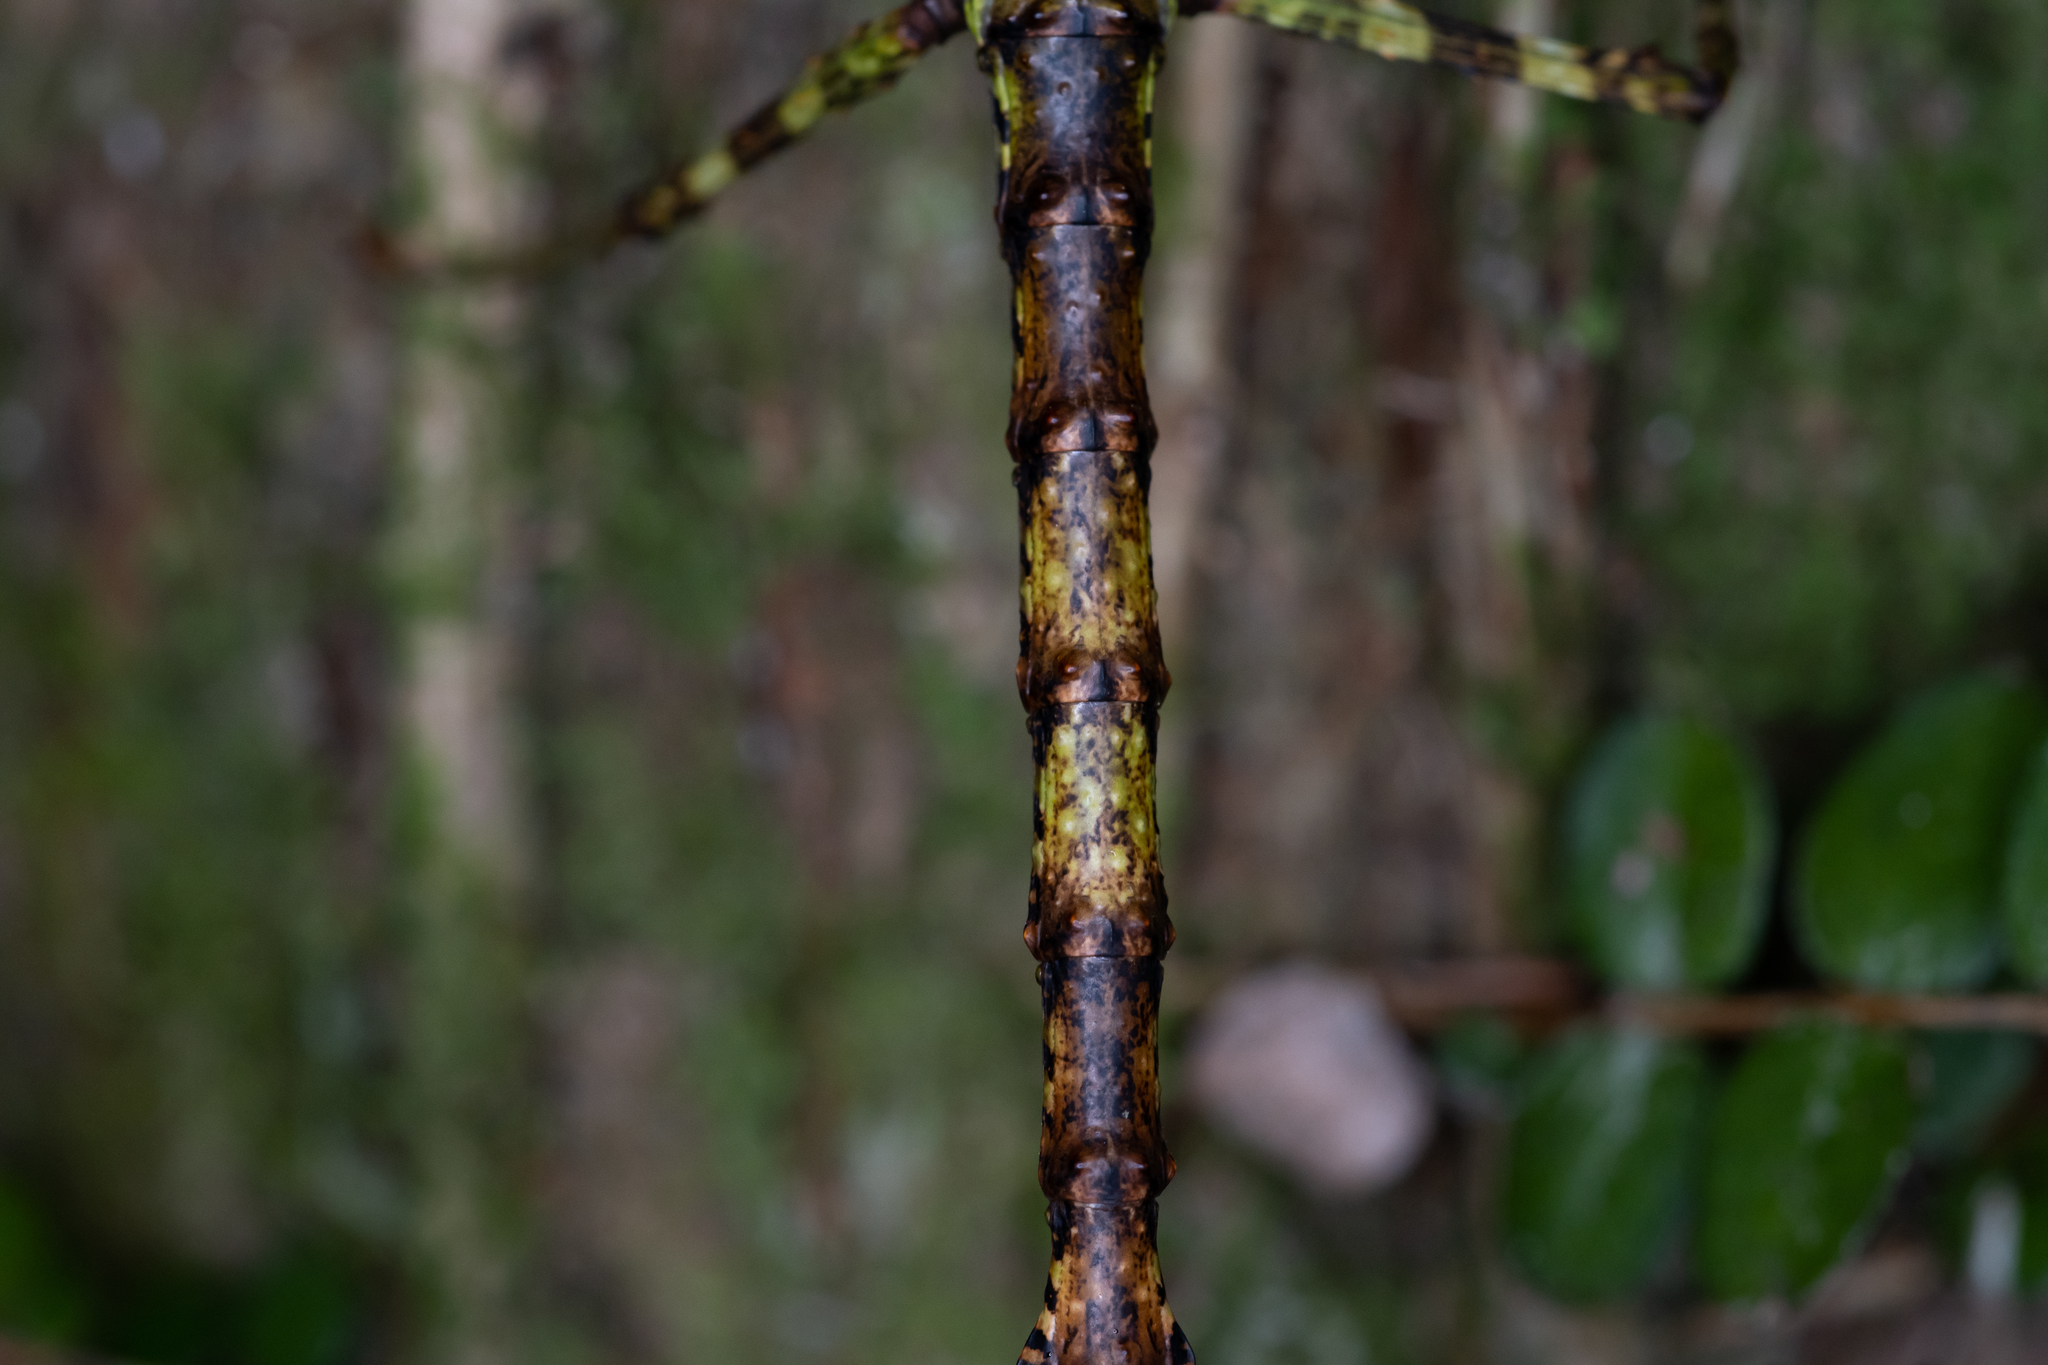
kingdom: Animalia
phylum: Arthropoda
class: Insecta
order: Phasmida
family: Phasmatidae
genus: Acanthoxyla
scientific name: Acanthoxyla prasina
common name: Black-spined stick insect
